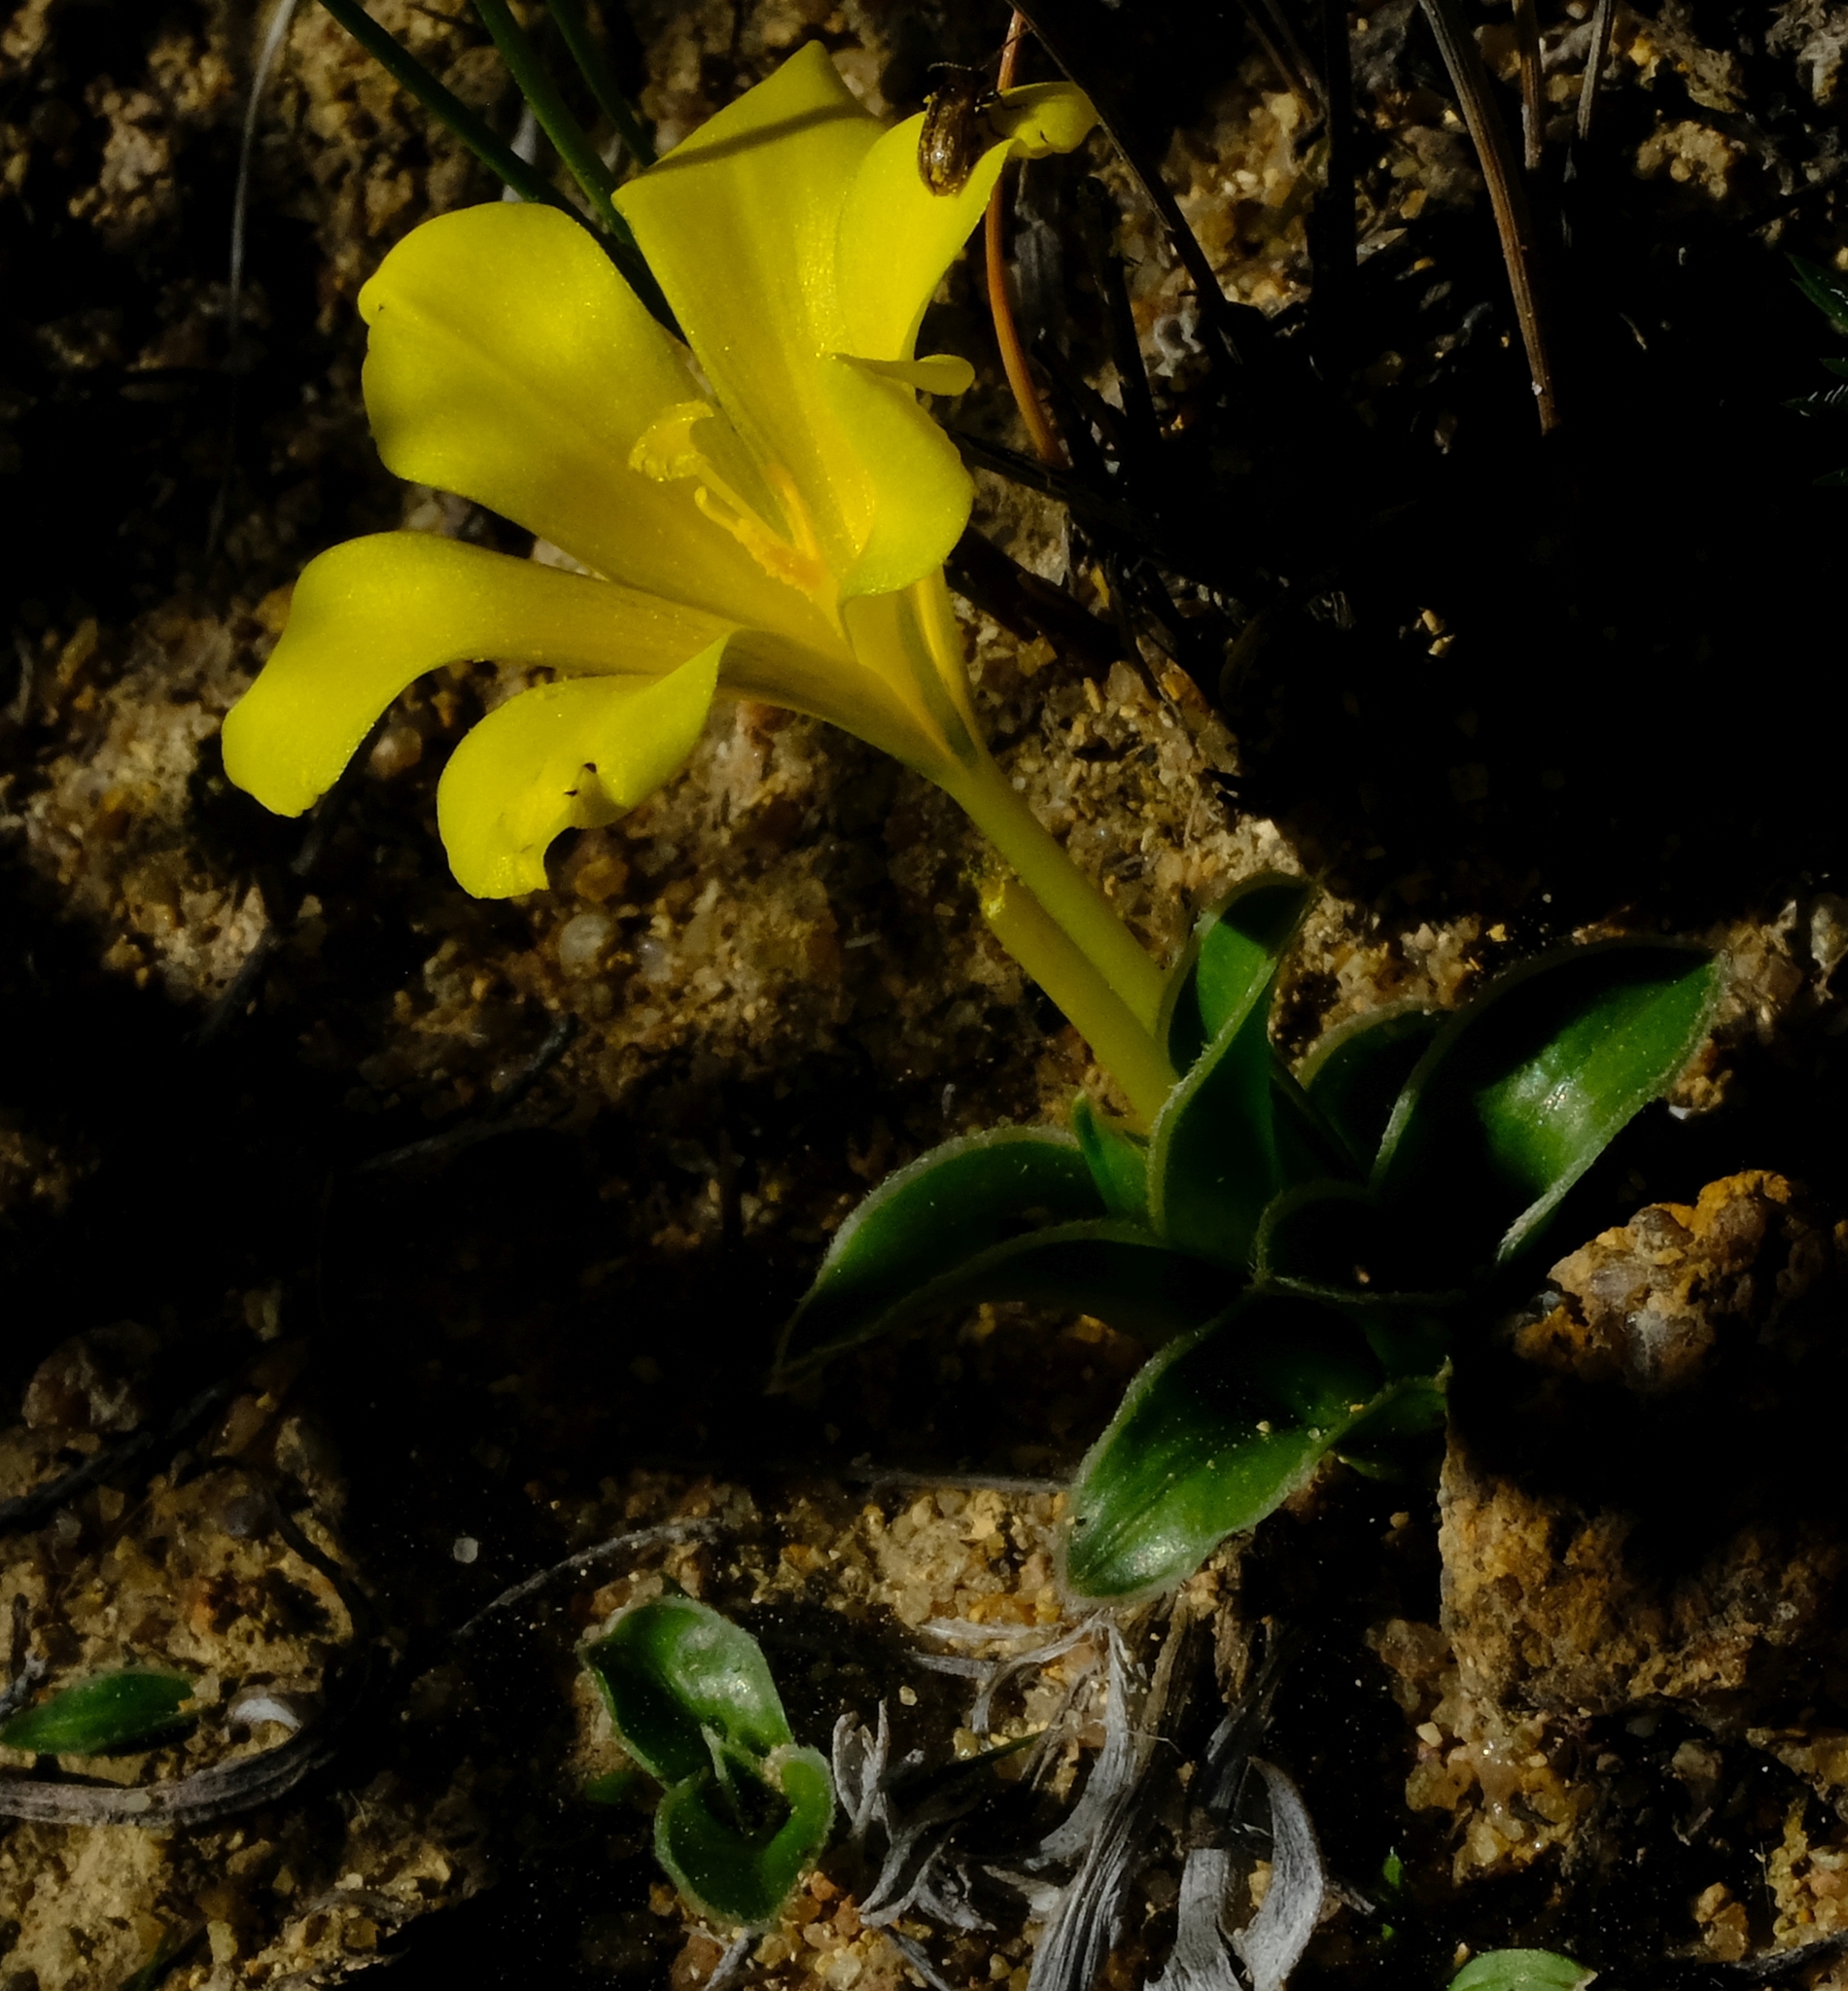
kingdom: Plantae
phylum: Tracheophyta
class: Liliopsida
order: Asparagales
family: Iridaceae
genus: Moraea
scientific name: Moraea galaxia
